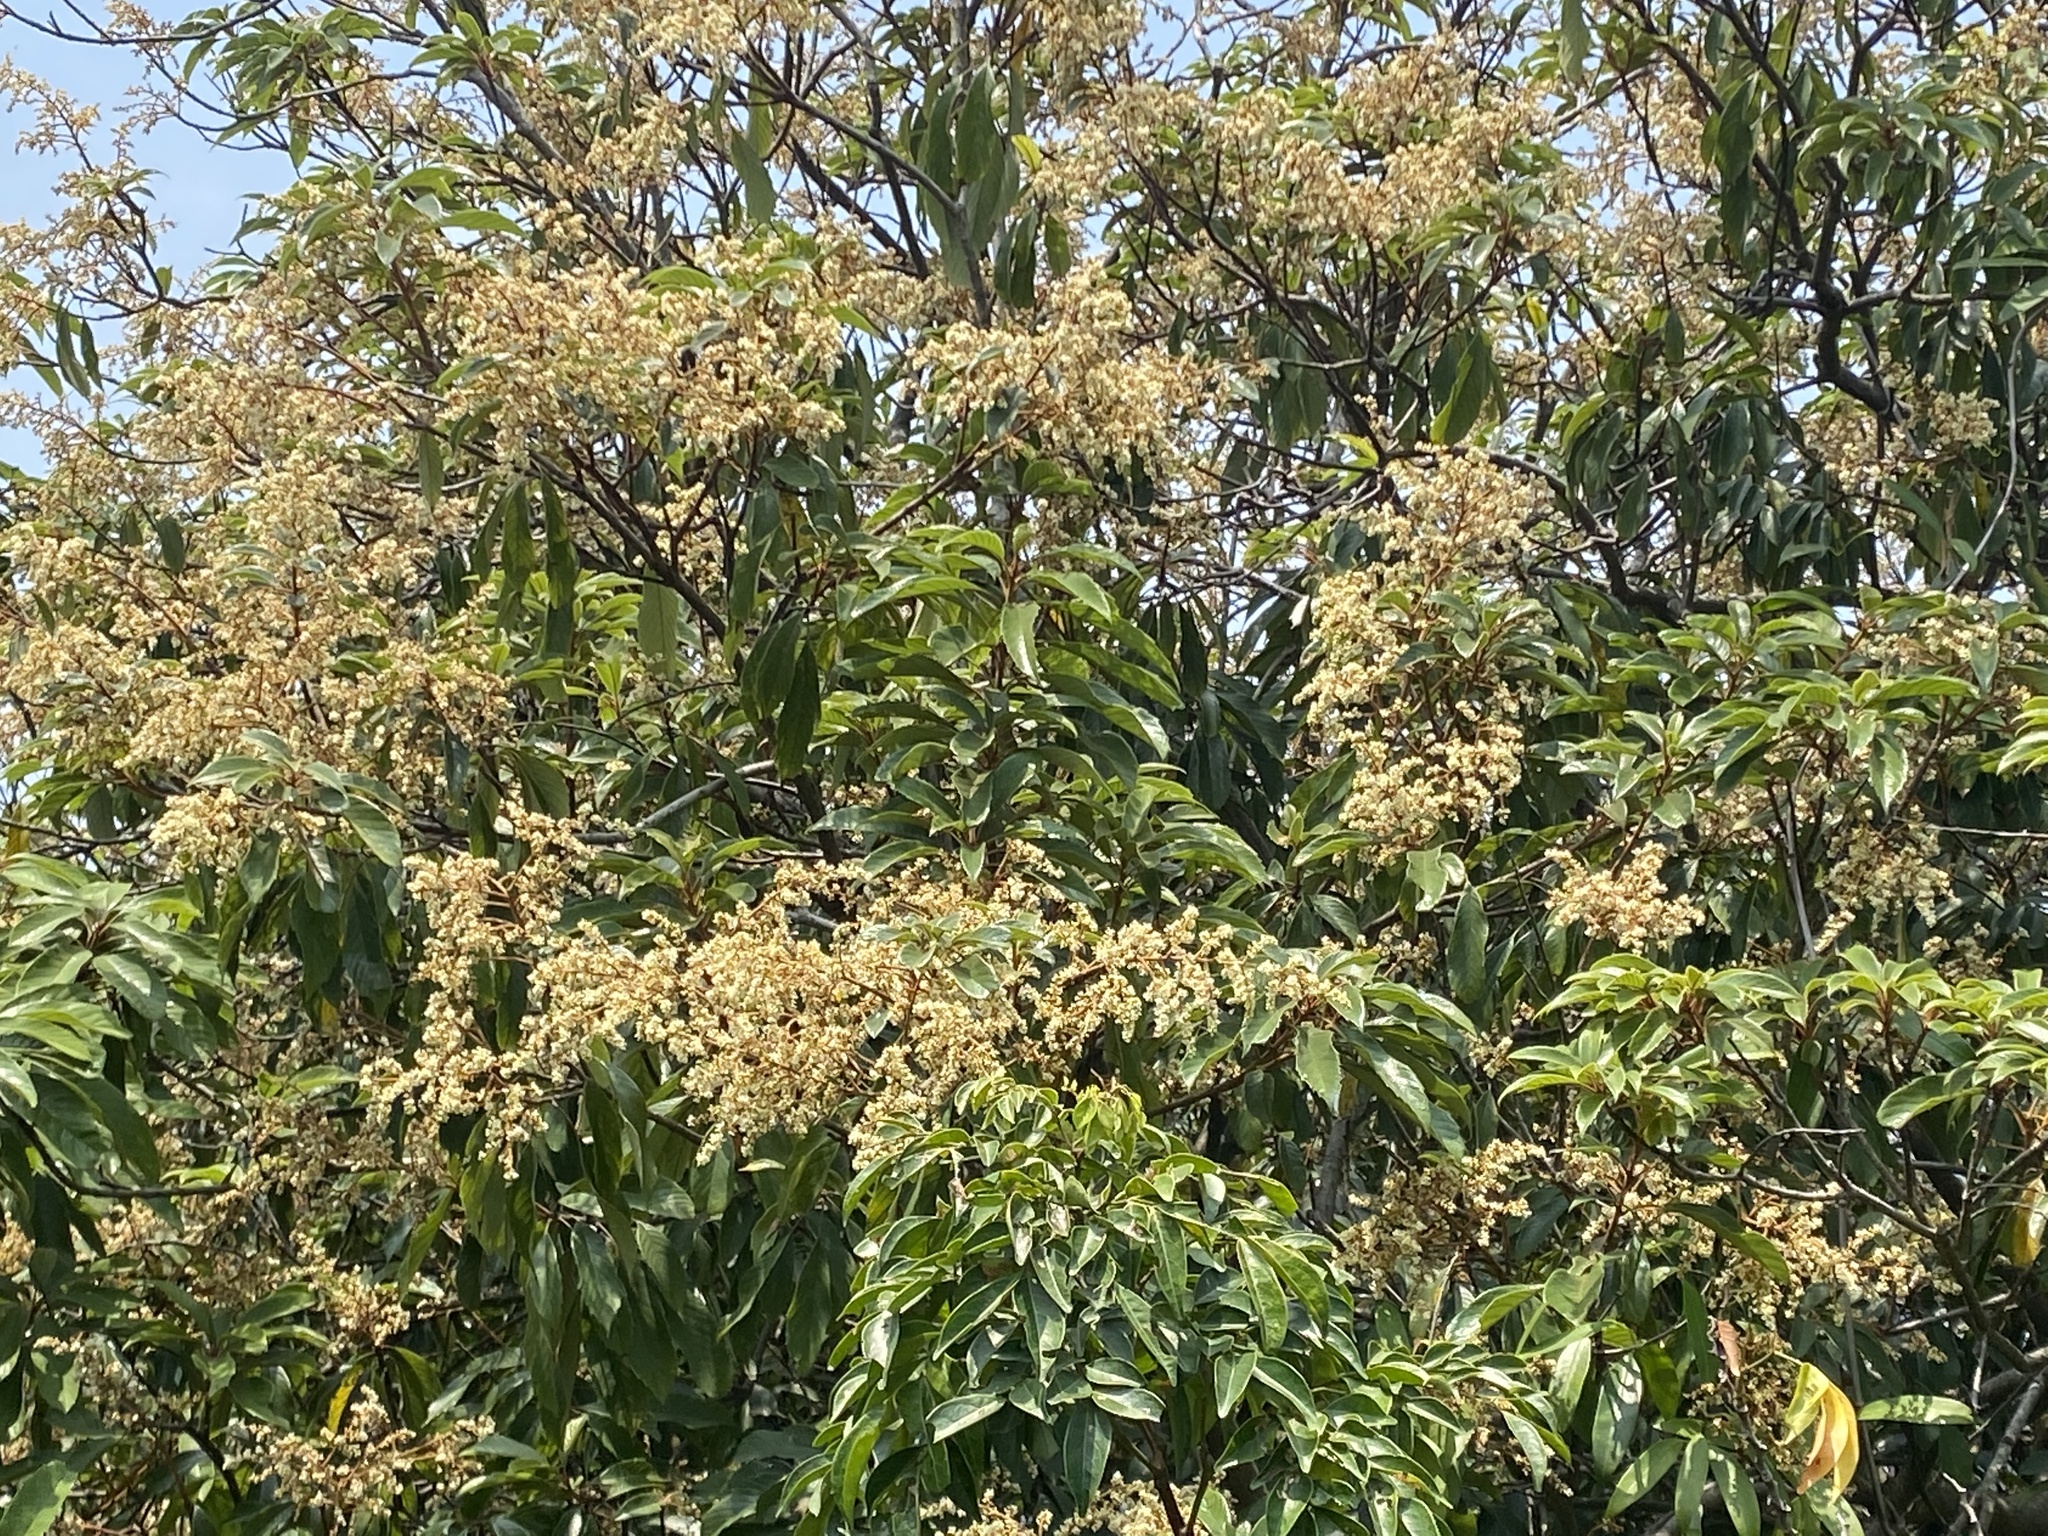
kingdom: Plantae
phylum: Tracheophyta
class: Magnoliopsida
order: Proteales
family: Sabiaceae
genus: Meliosma
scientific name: Meliosma rigida
